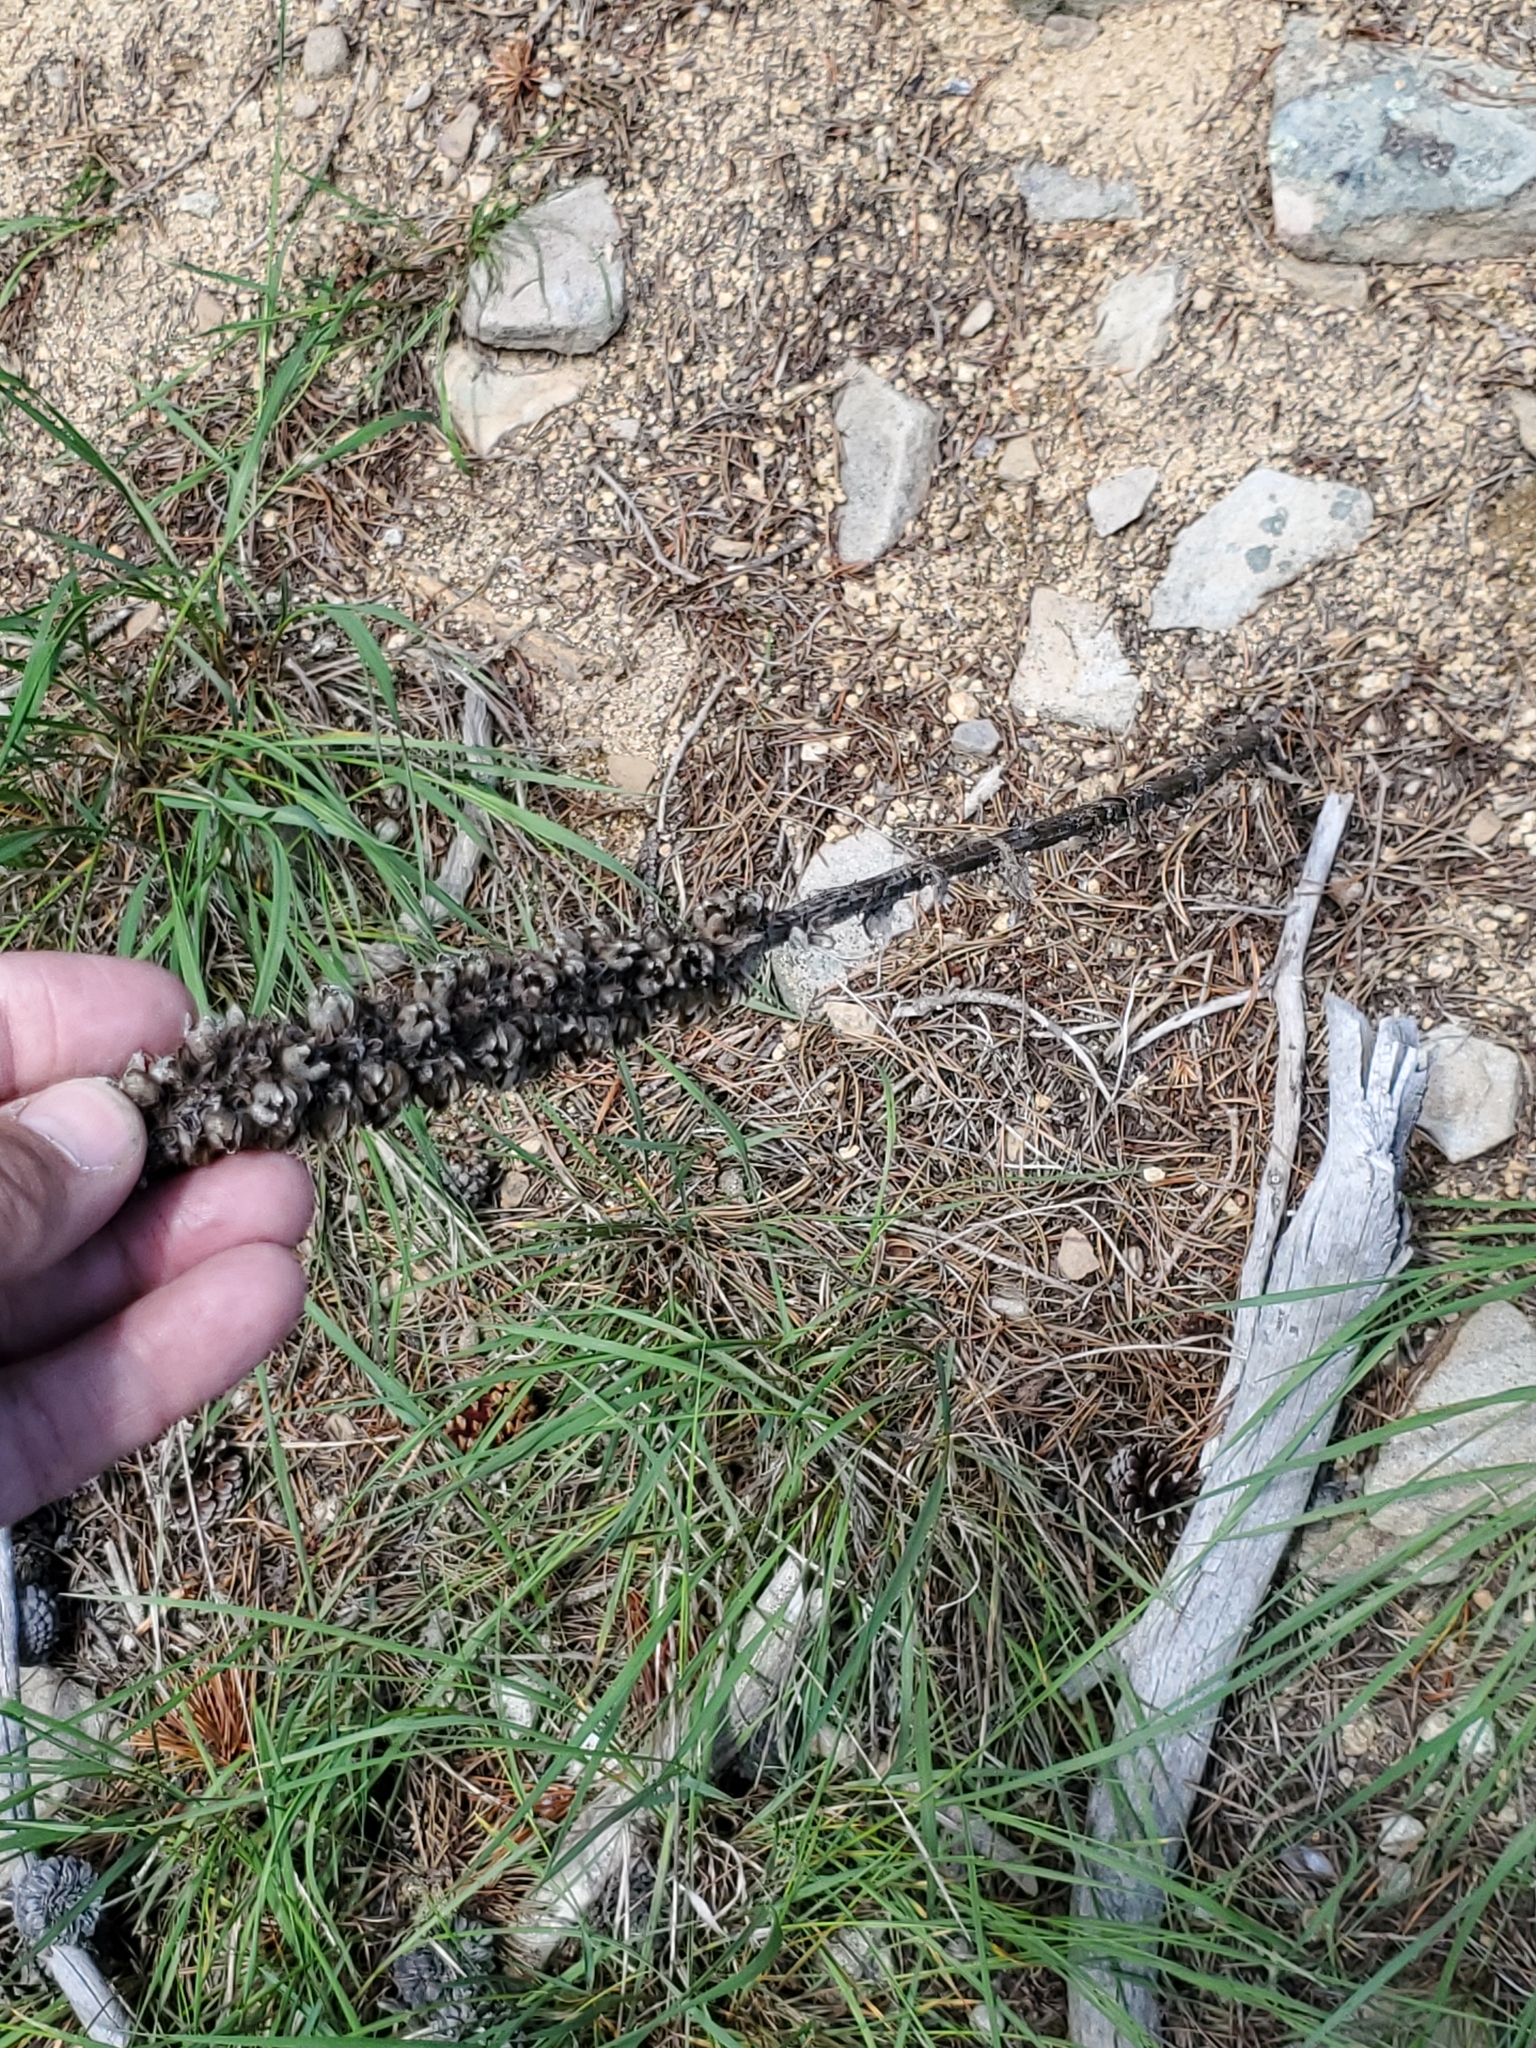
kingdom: Plantae
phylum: Tracheophyta
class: Magnoliopsida
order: Lamiales
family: Scrophulariaceae
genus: Verbascum
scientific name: Verbascum thapsus
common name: Common mullein
